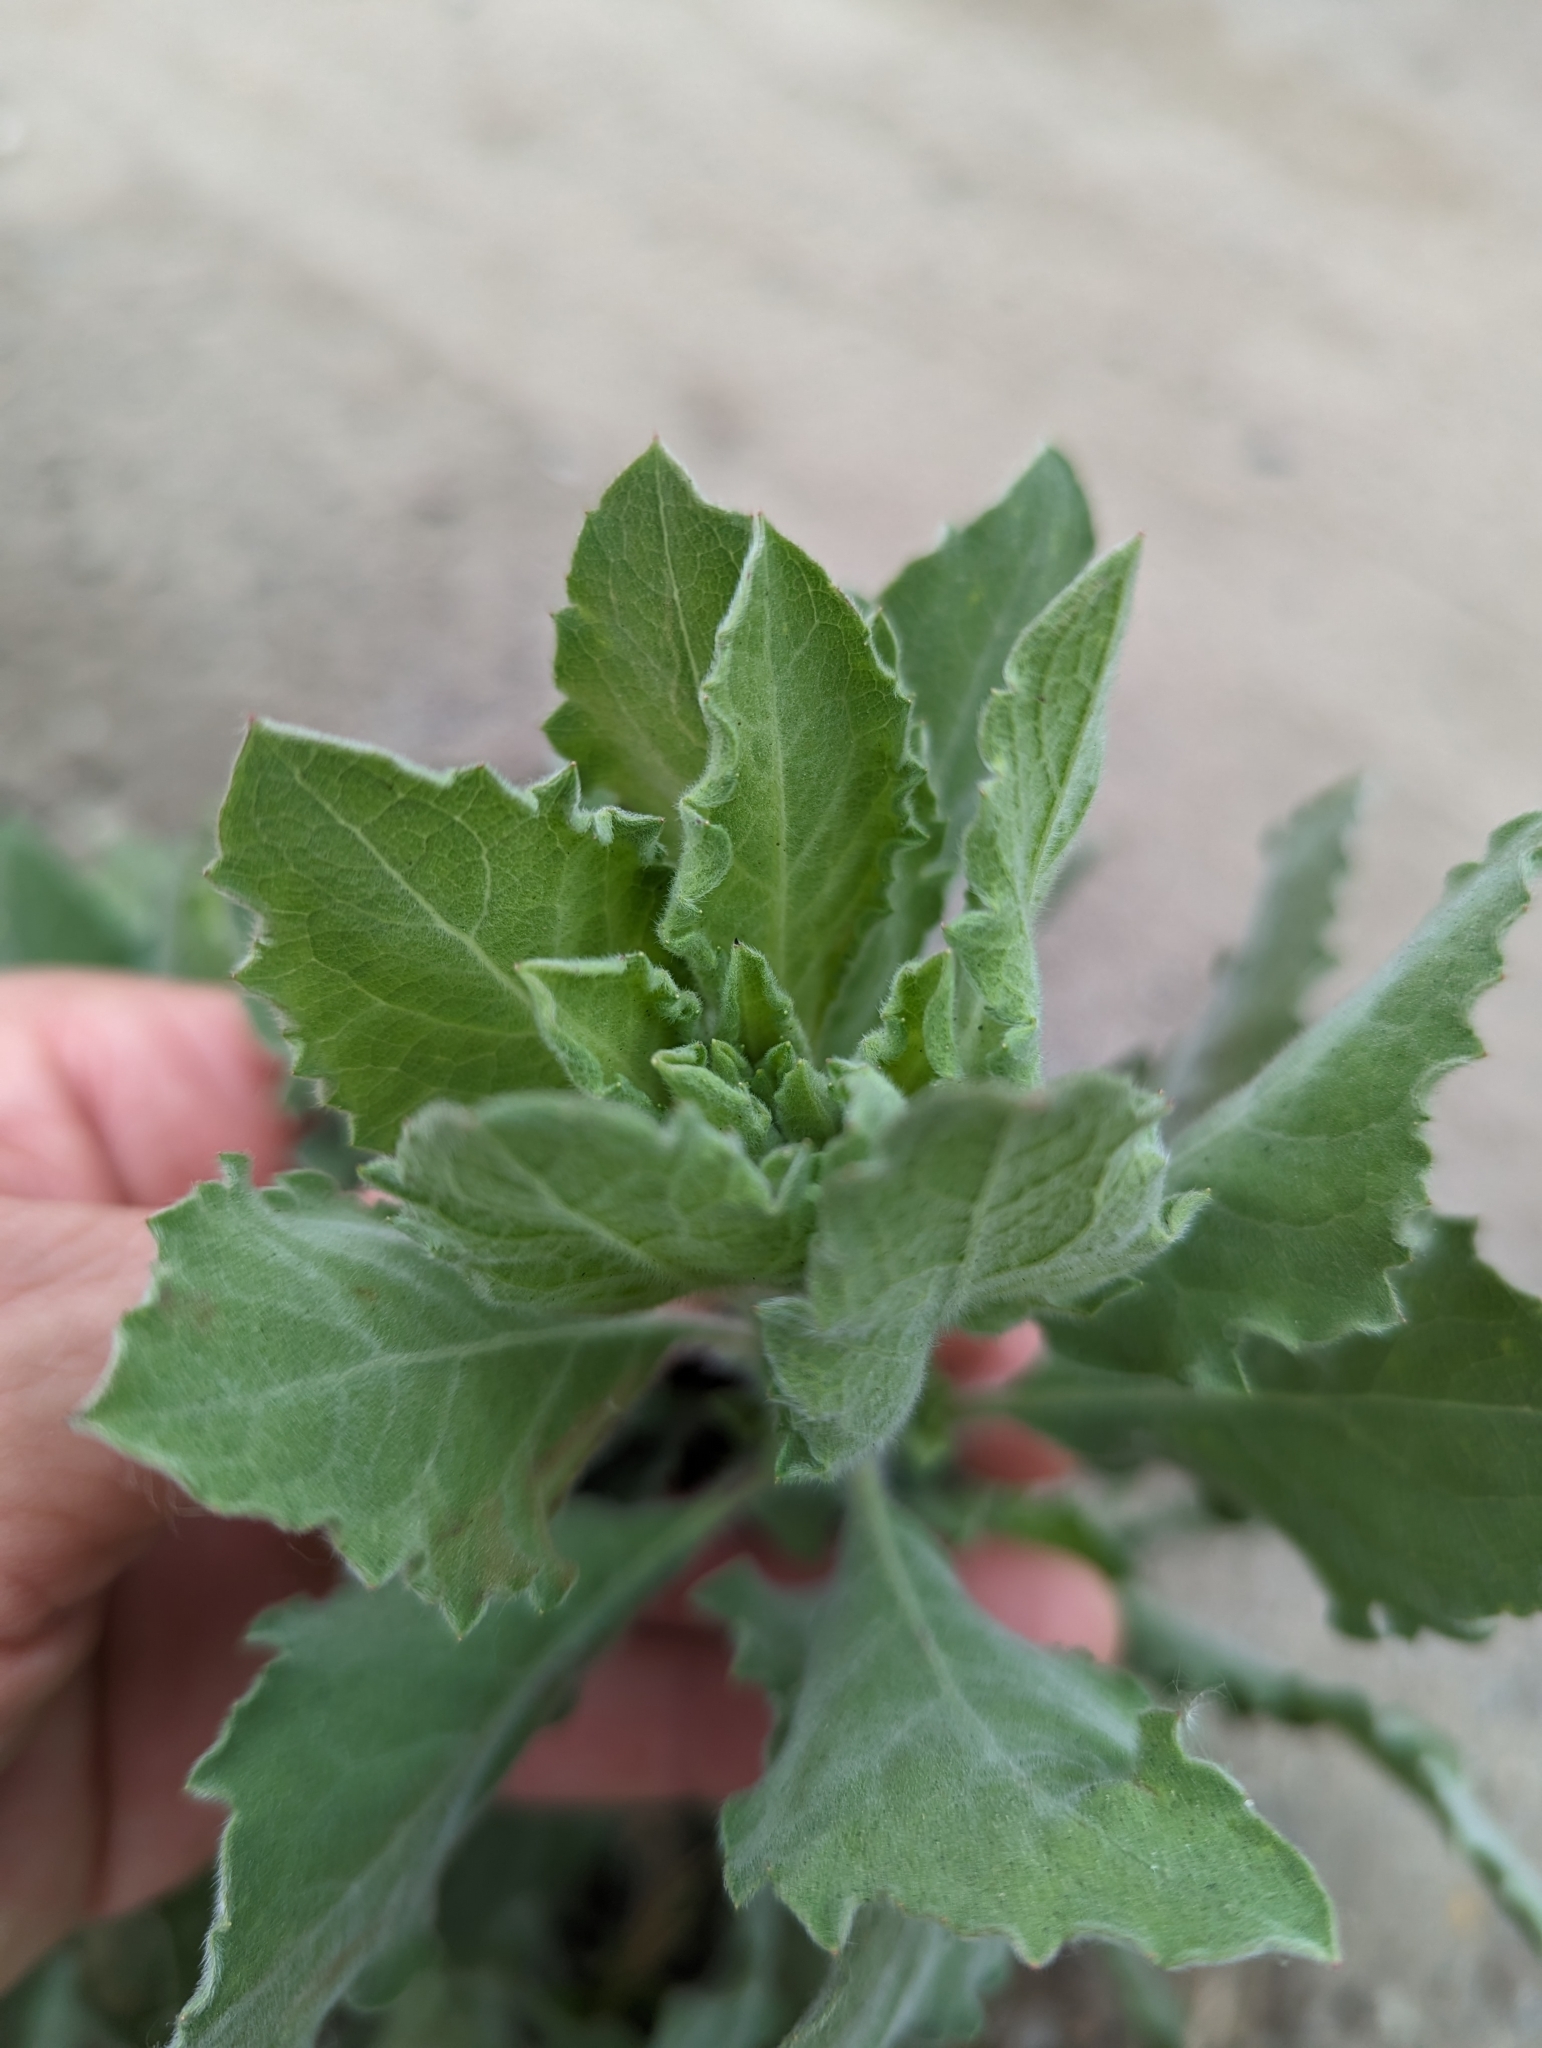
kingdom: Plantae
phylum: Tracheophyta
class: Magnoliopsida
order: Asterales
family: Asteraceae
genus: Heterotheca
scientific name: Heterotheca grandiflora
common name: Telegraphweed
